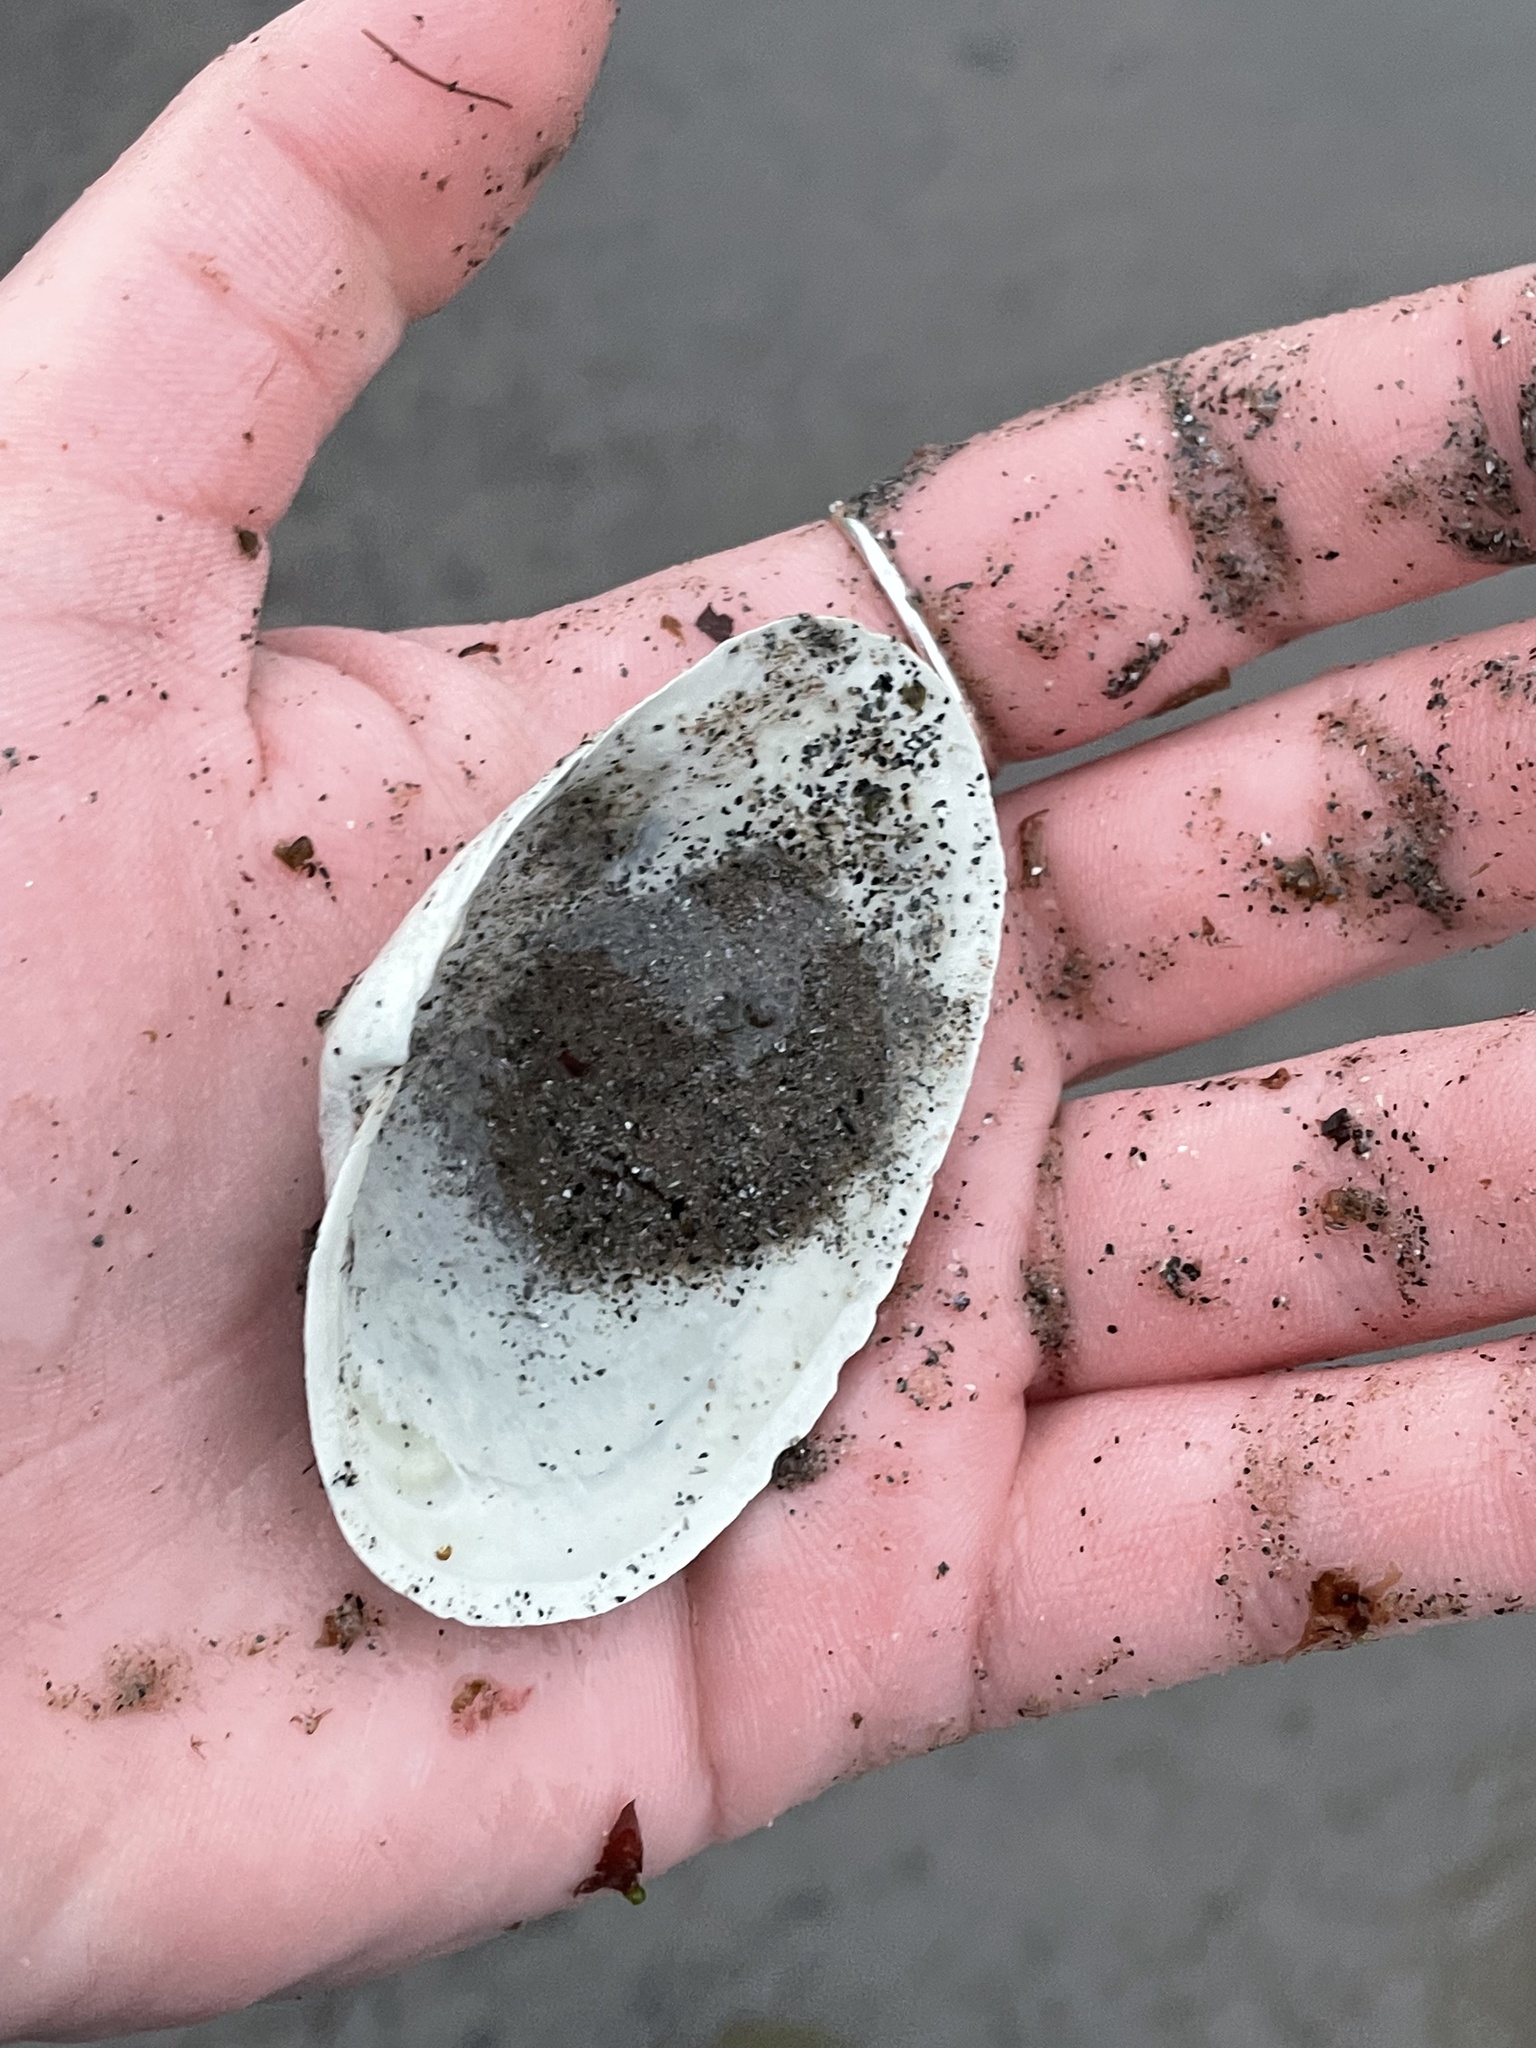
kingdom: Animalia
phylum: Mollusca
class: Bivalvia
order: Myida
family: Myidae
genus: Mya
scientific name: Mya arenaria
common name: Soft-shelled clam
